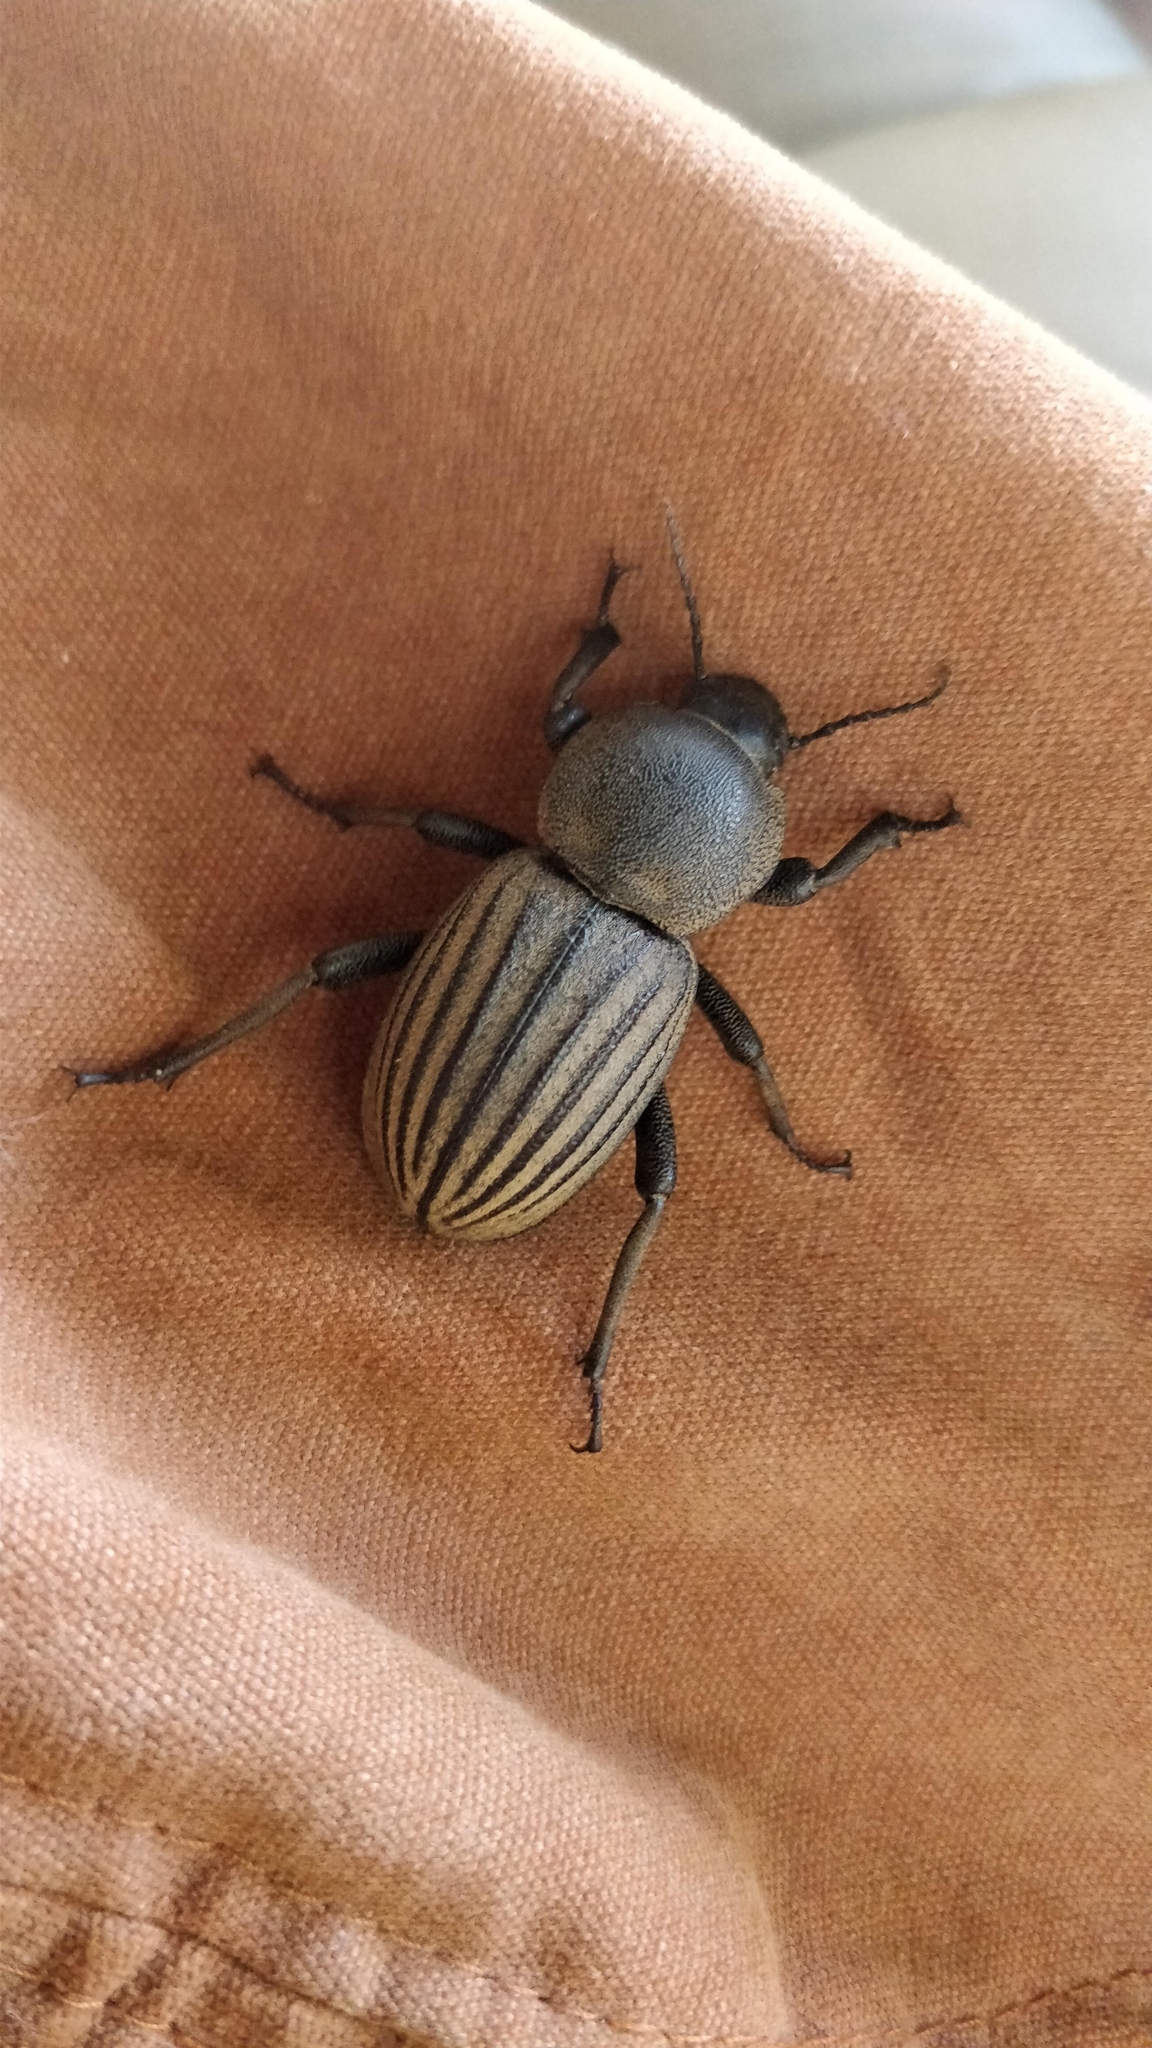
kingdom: Animalia
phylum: Arthropoda
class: Insecta
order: Coleoptera
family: Tenebrionidae
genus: Ocnodes
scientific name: Ocnodes rowleianus
